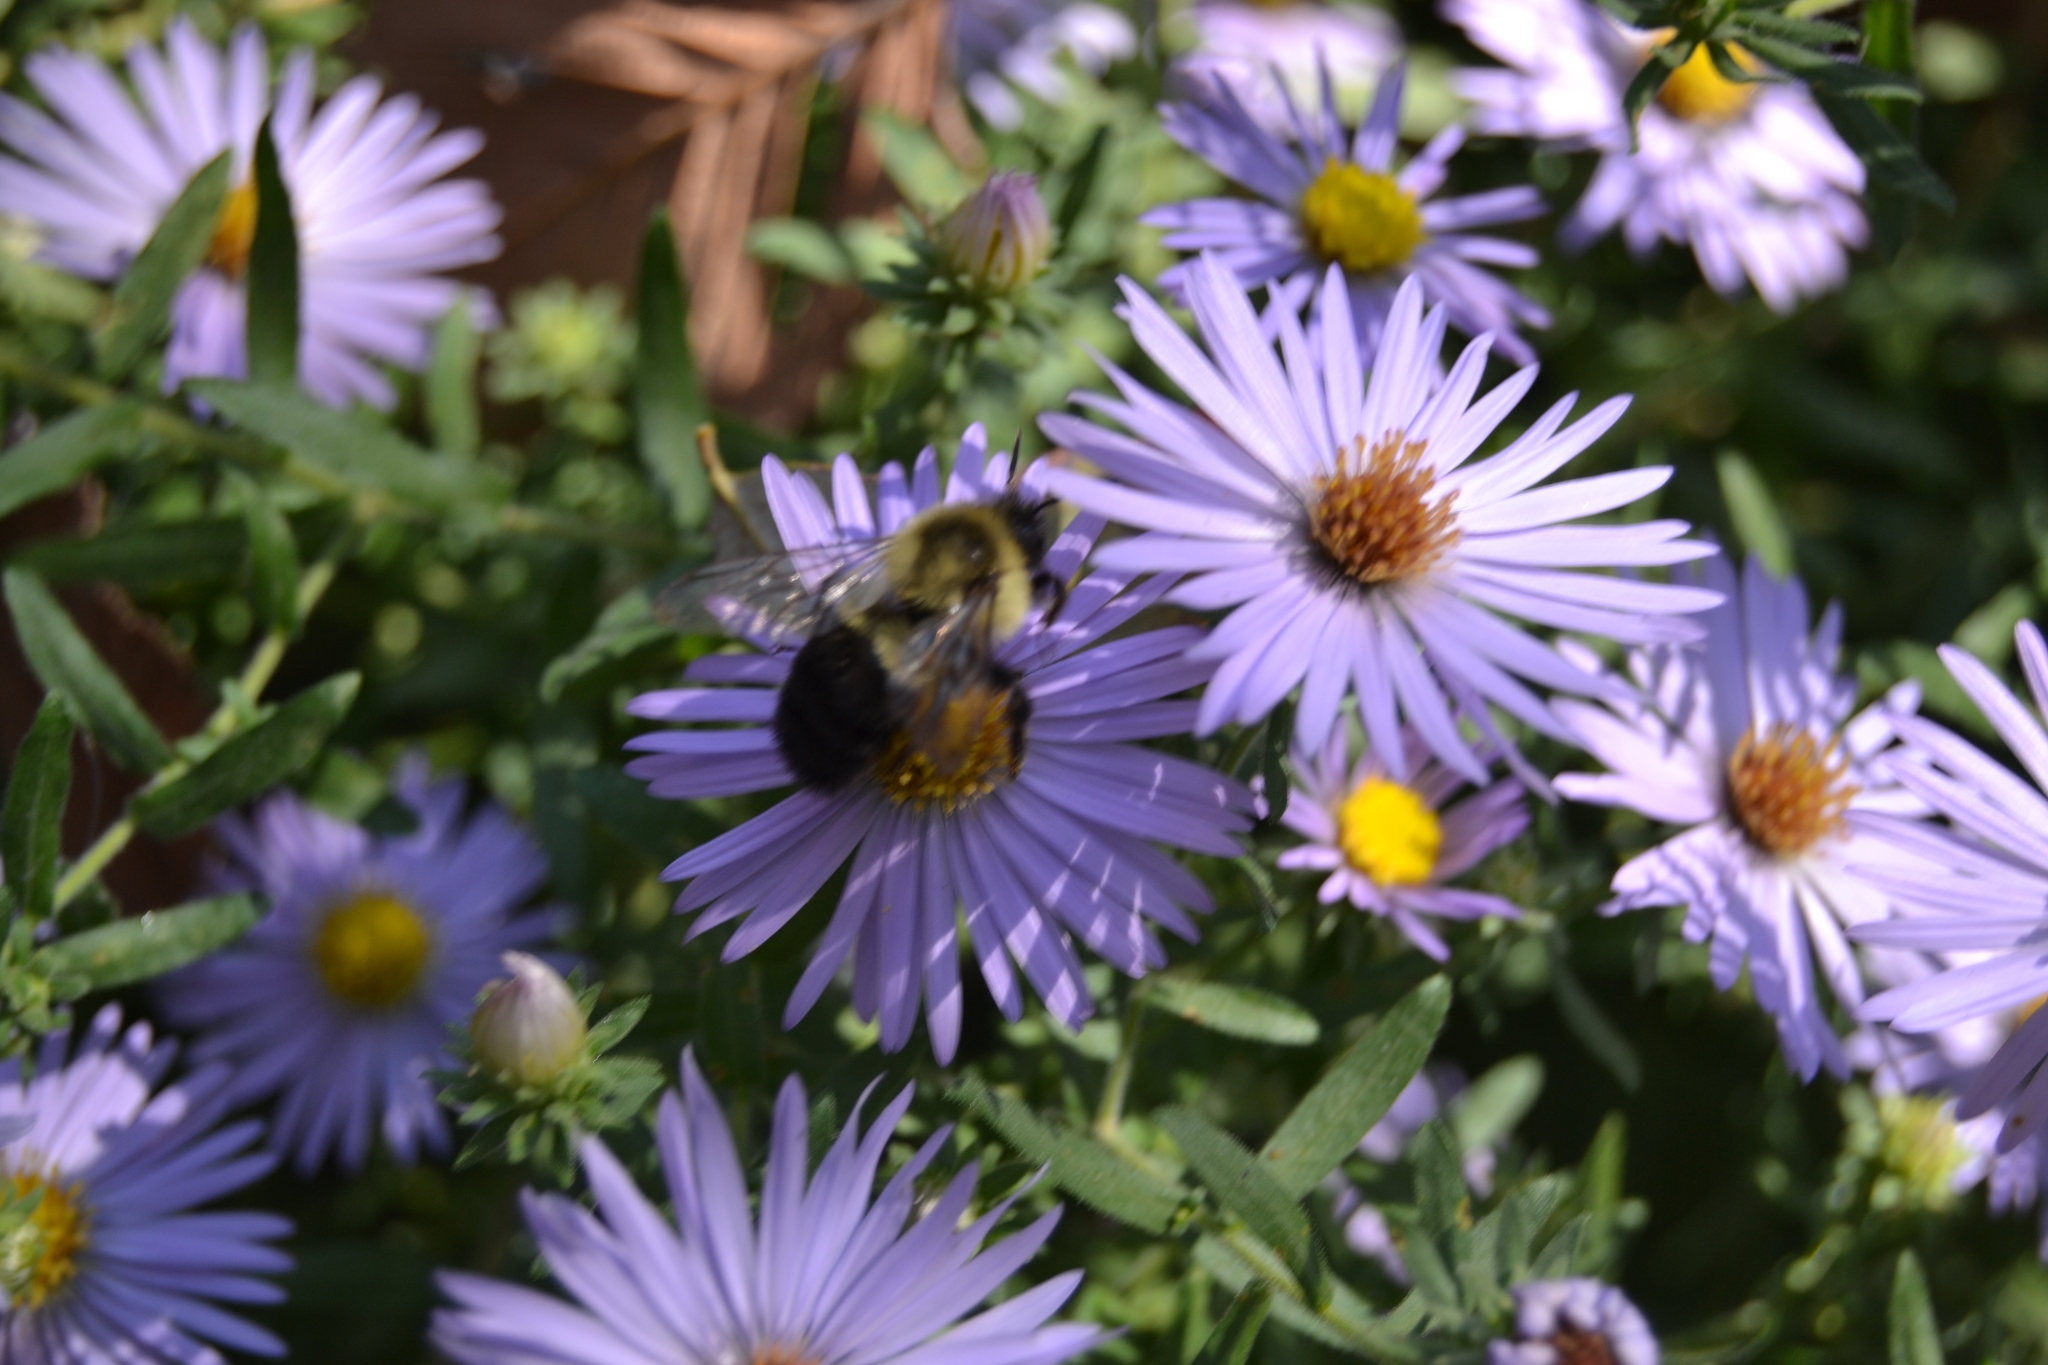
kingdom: Animalia
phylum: Arthropoda
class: Insecta
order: Hymenoptera
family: Apidae
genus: Bombus
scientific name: Bombus impatiens
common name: Common eastern bumble bee
